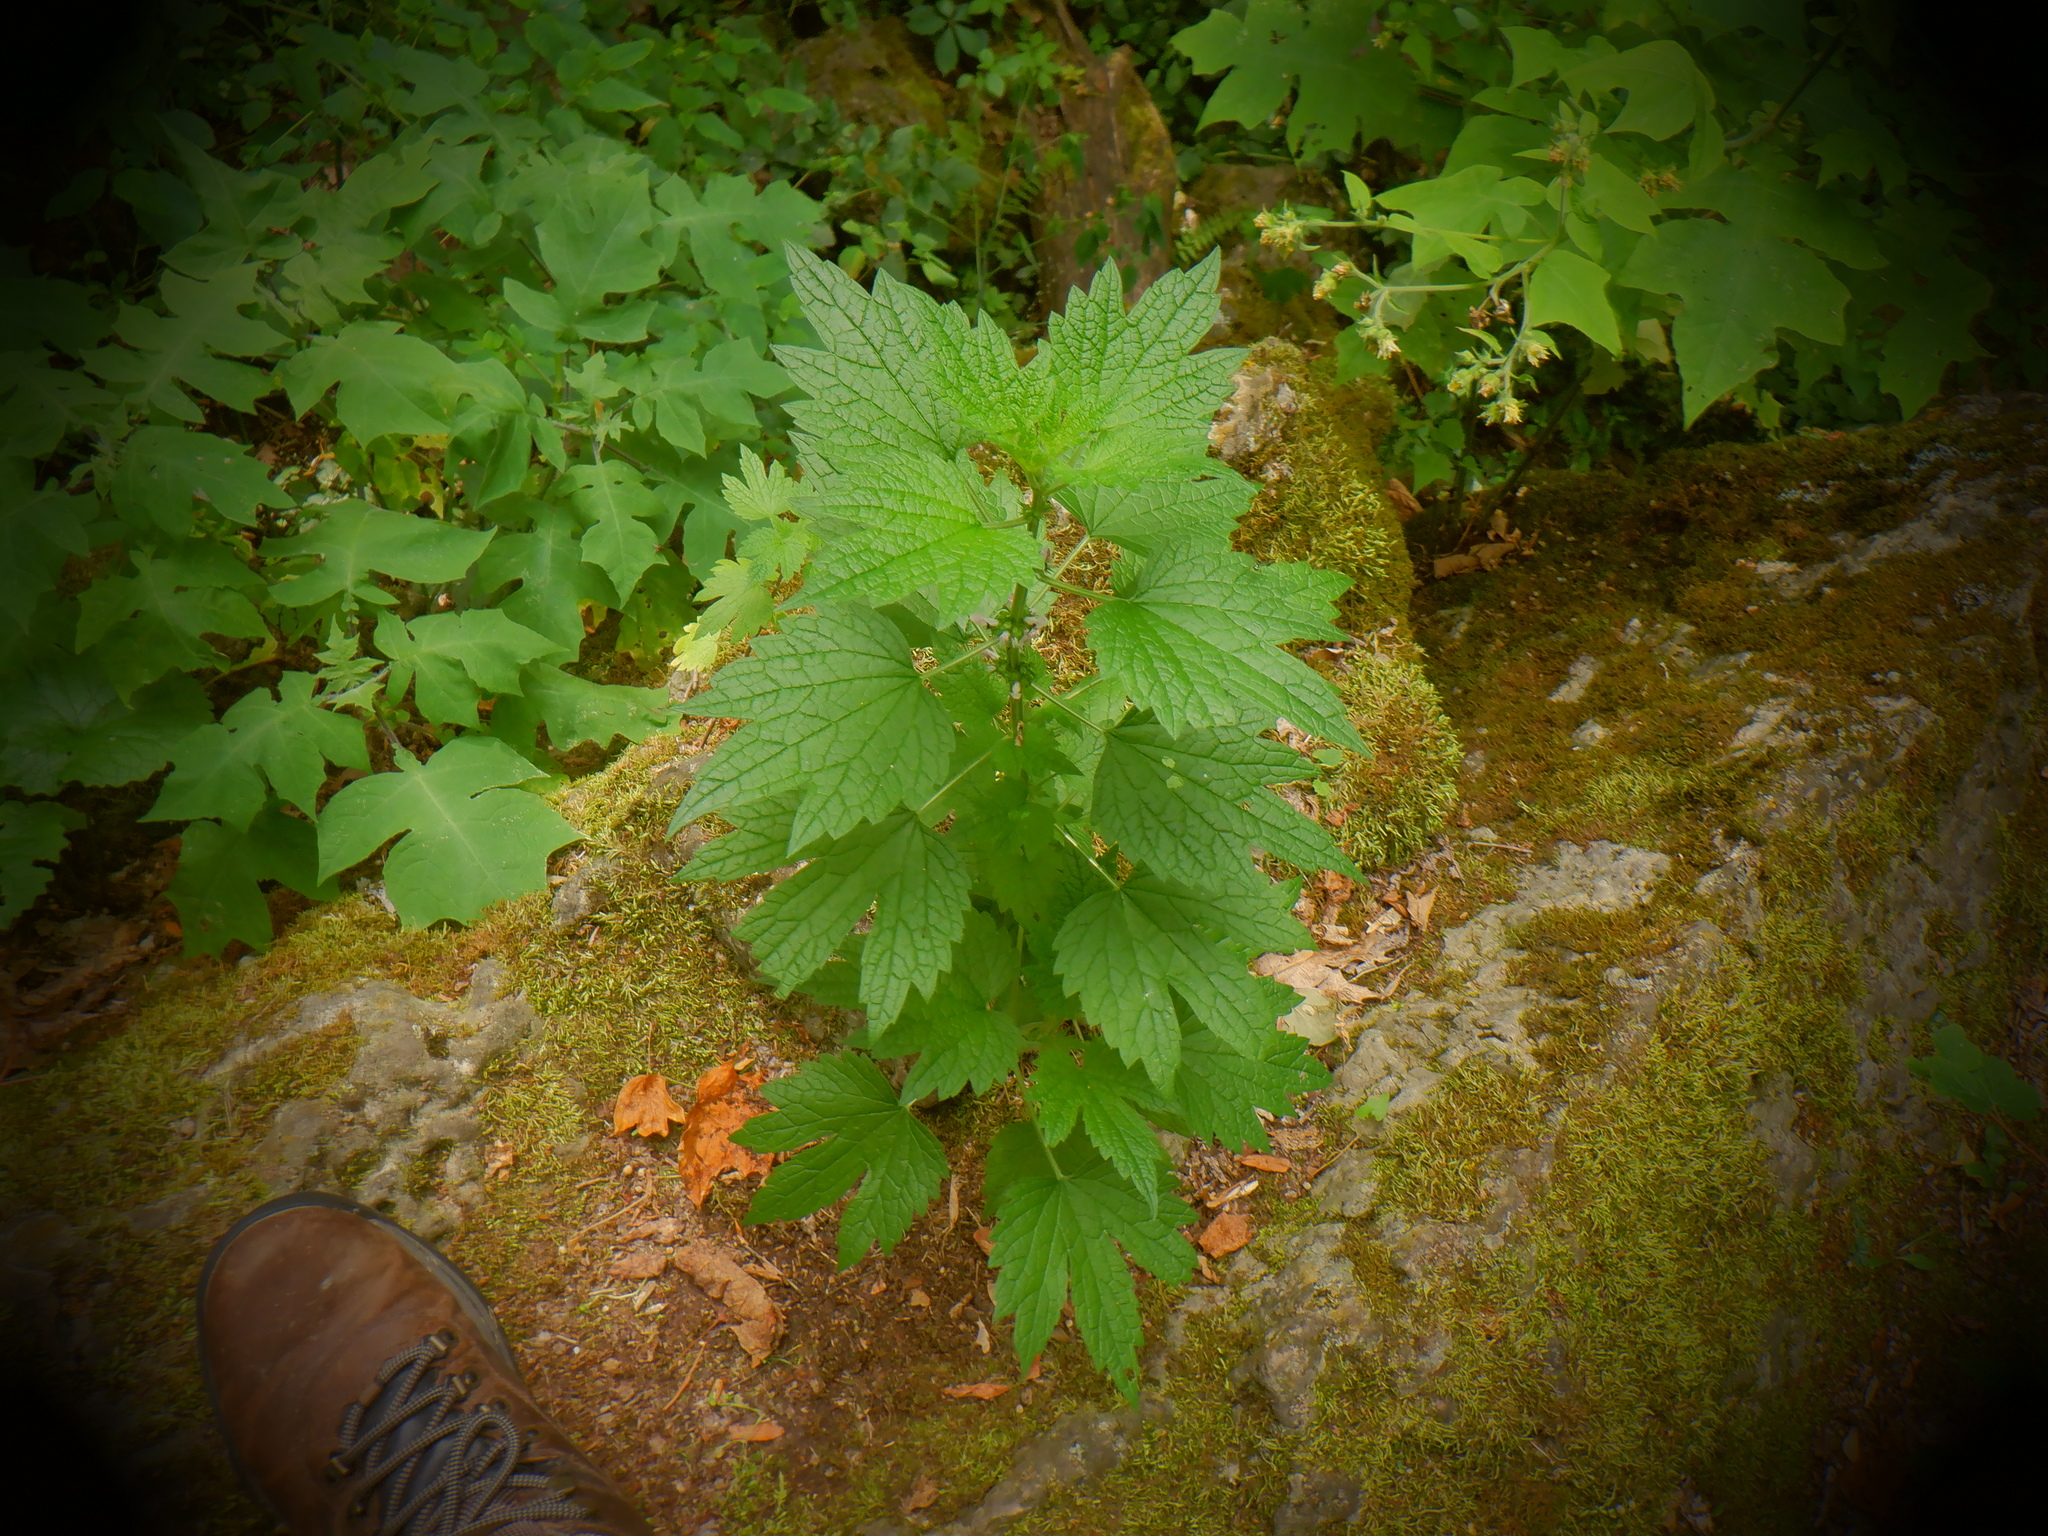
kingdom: Plantae
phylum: Tracheophyta
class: Magnoliopsida
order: Lamiales
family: Lamiaceae
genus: Leonurus
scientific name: Leonurus cardiaca
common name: Motherwort
